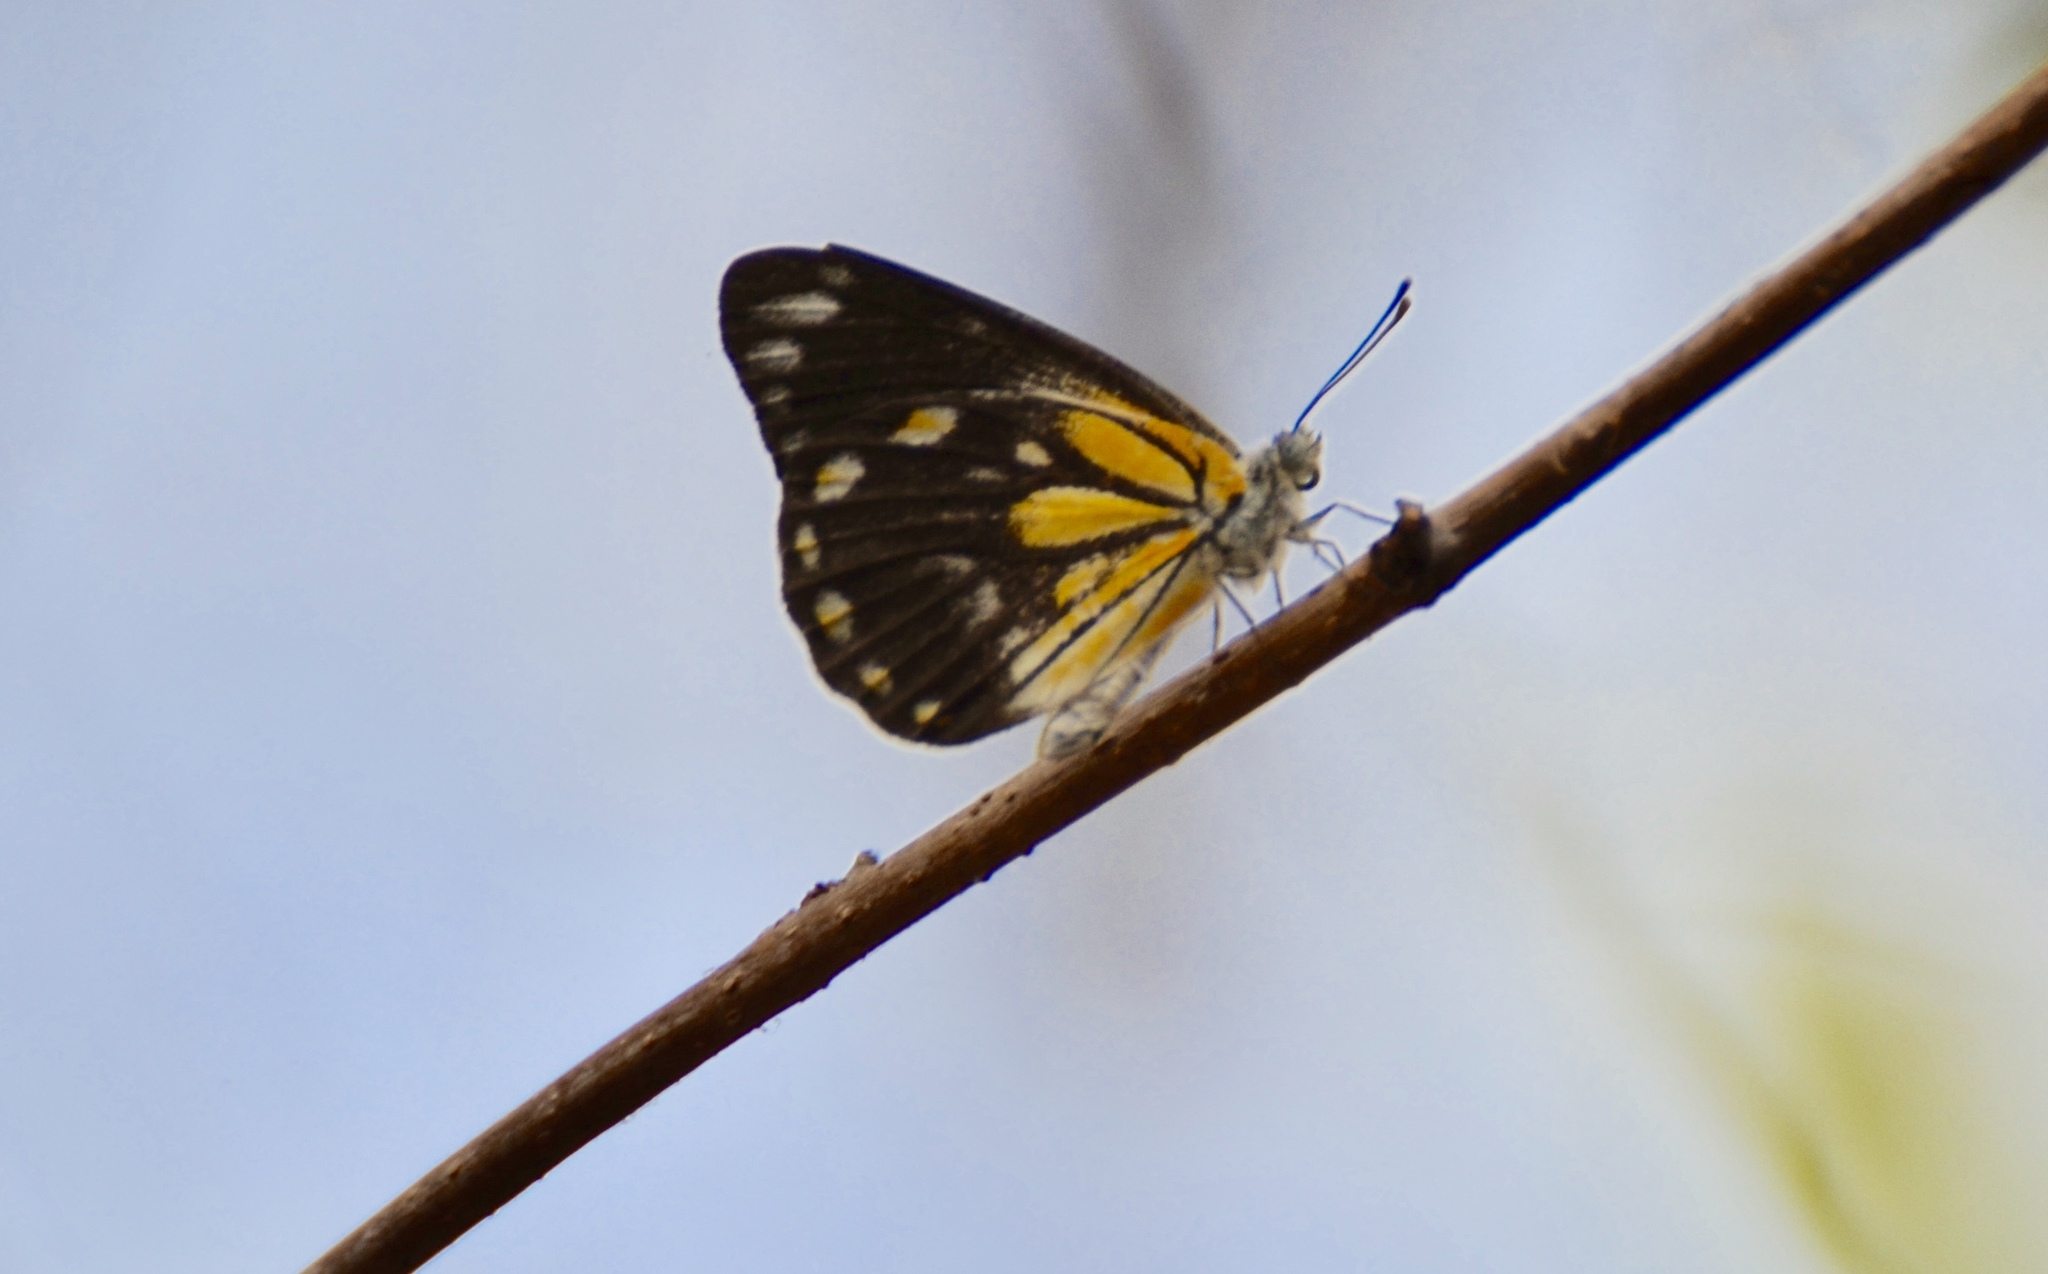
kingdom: Animalia
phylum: Arthropoda
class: Insecta
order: Lepidoptera
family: Pieridae
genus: Belenois
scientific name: Belenois java
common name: Caper white
